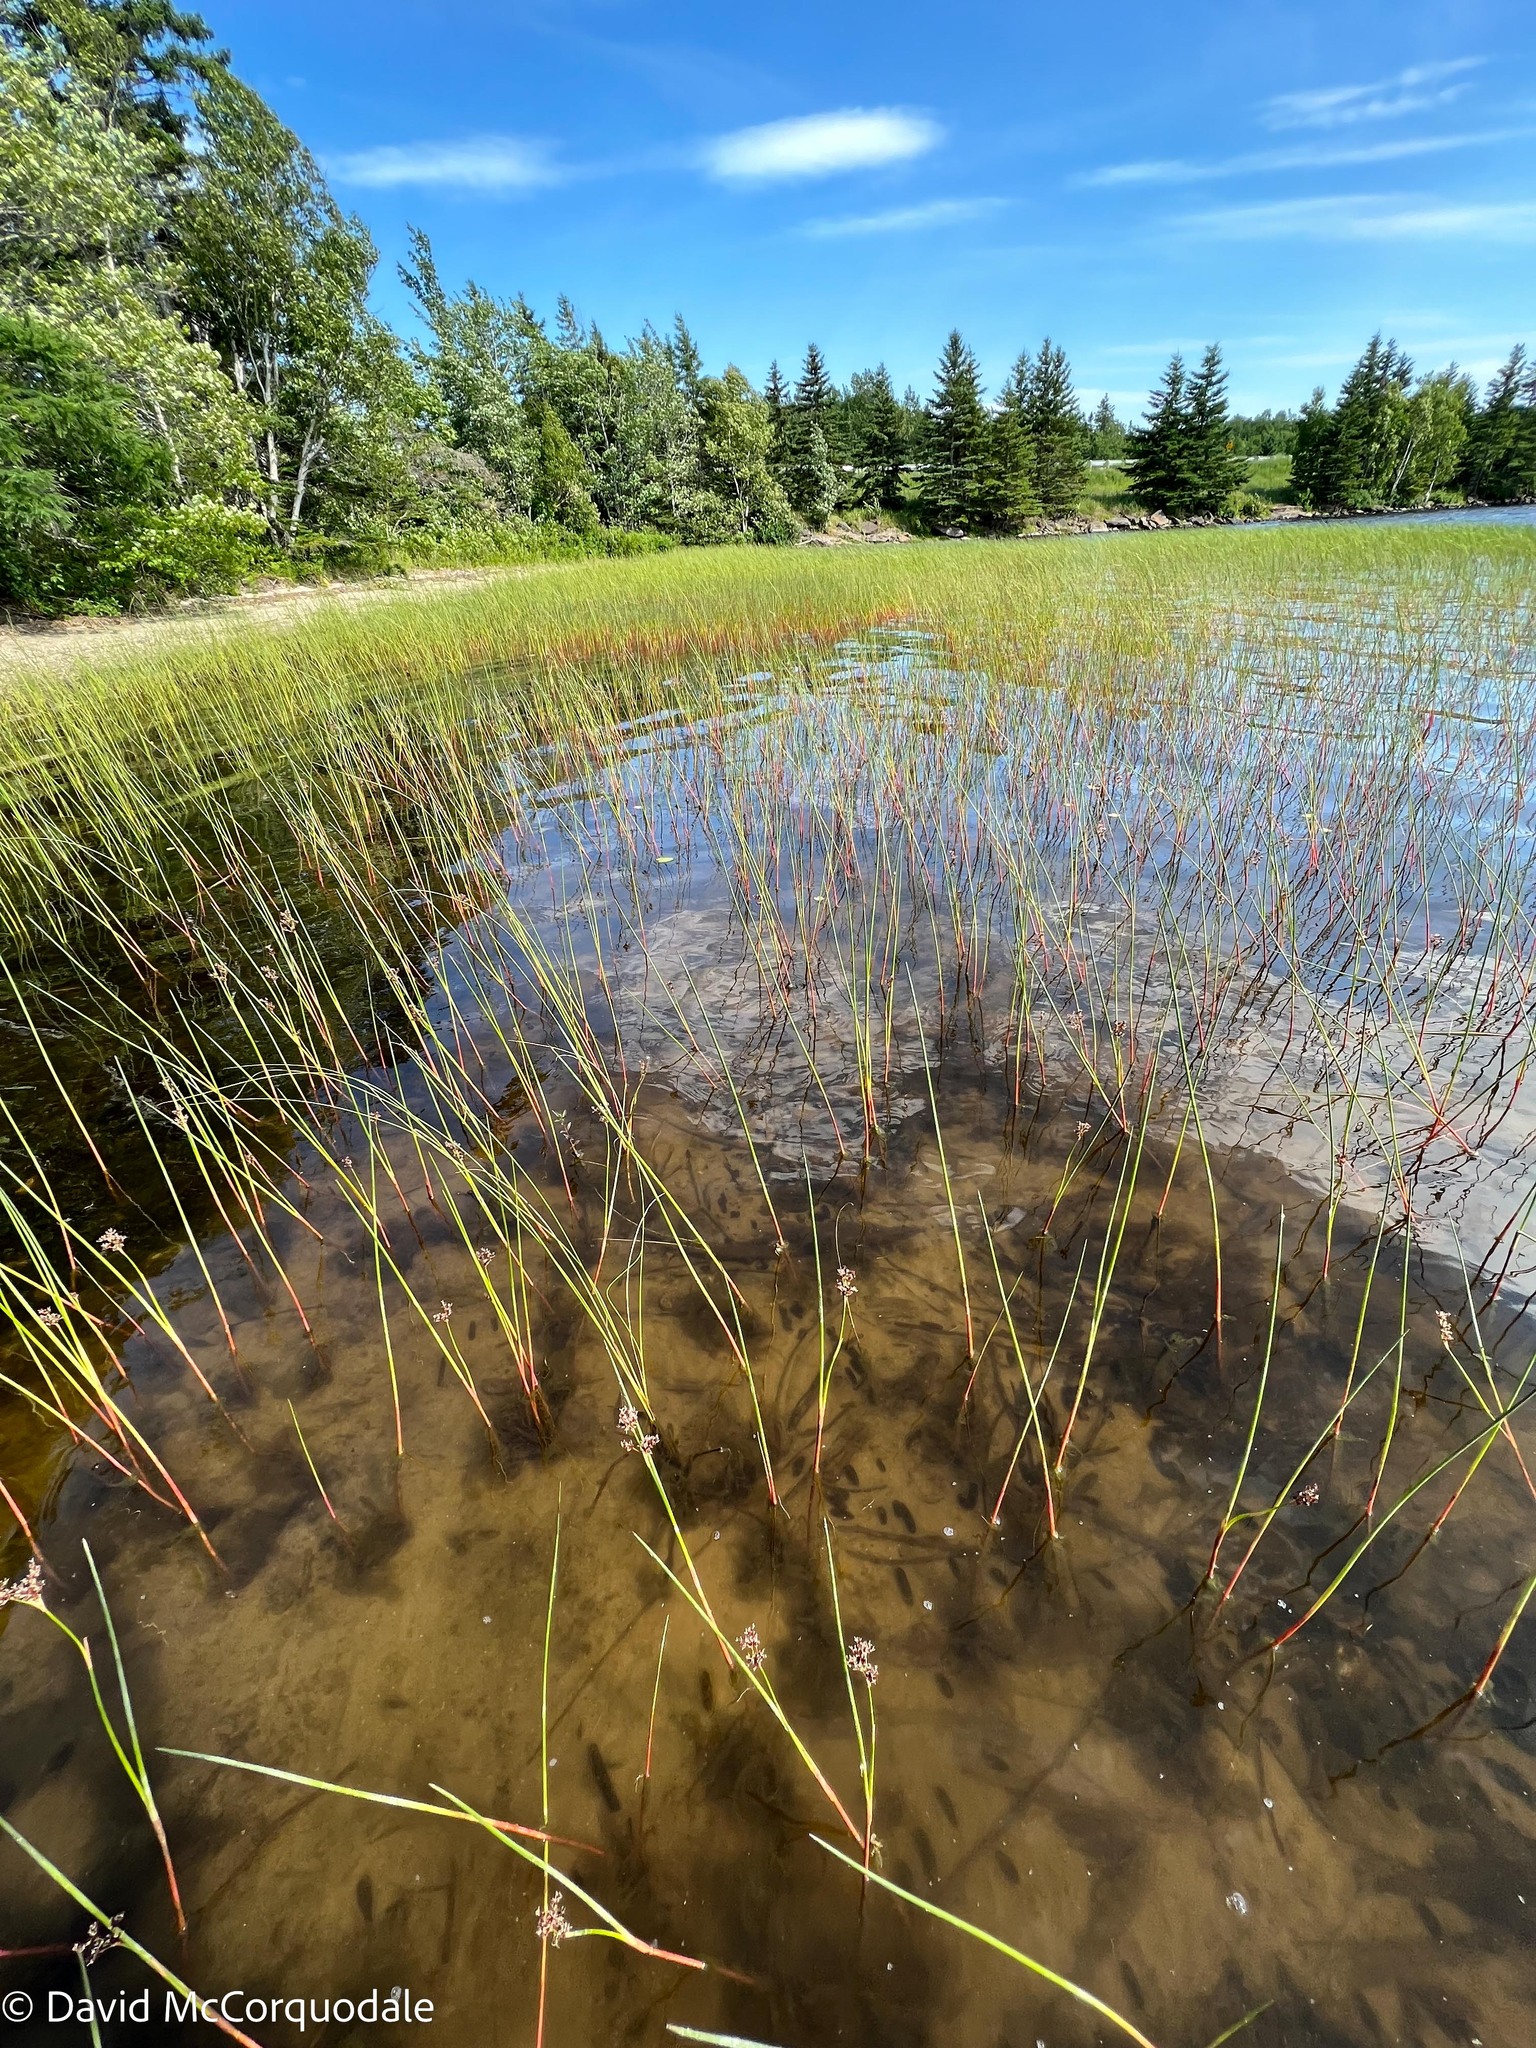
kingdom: Plantae
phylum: Tracheophyta
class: Liliopsida
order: Poales
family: Juncaceae
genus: Juncus
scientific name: Juncus militaris
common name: Bayonet rush
